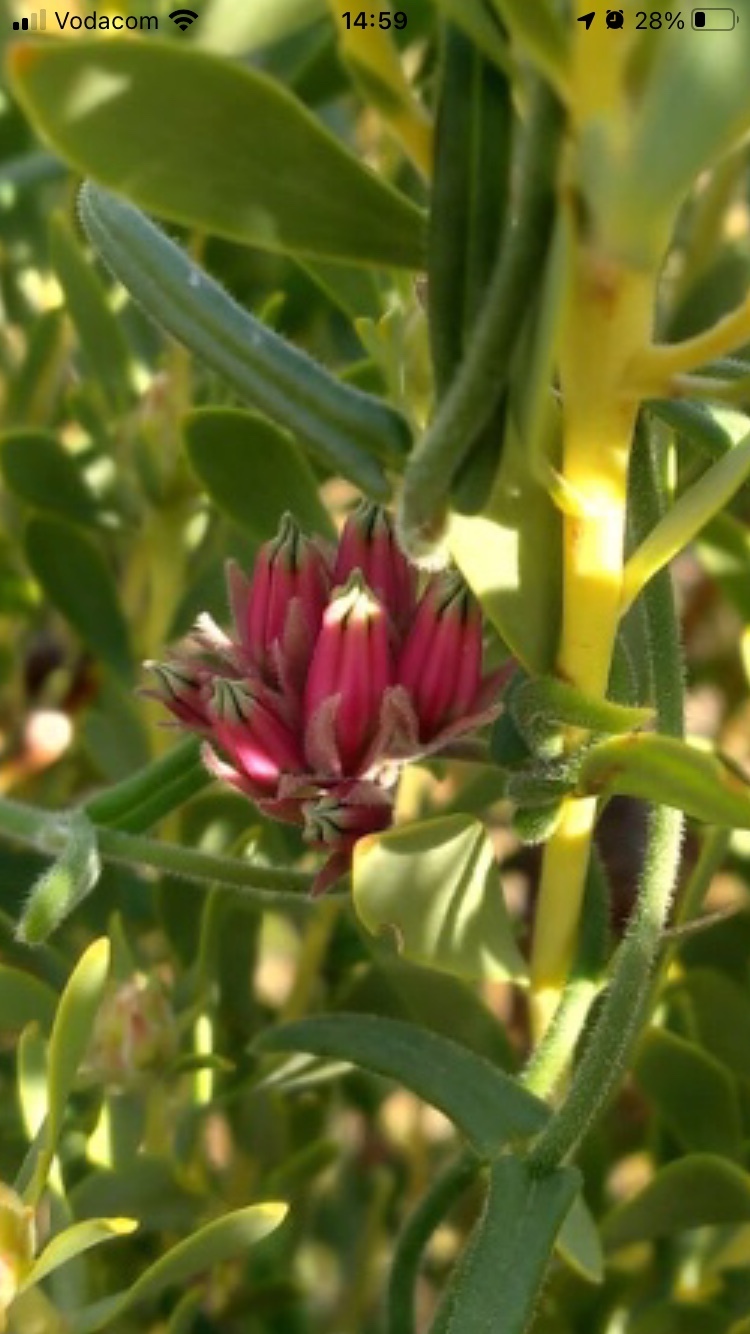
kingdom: Plantae
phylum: Tracheophyta
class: Magnoliopsida
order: Gentianales
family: Apocynaceae
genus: Microloma
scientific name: Microloma sagittatum
